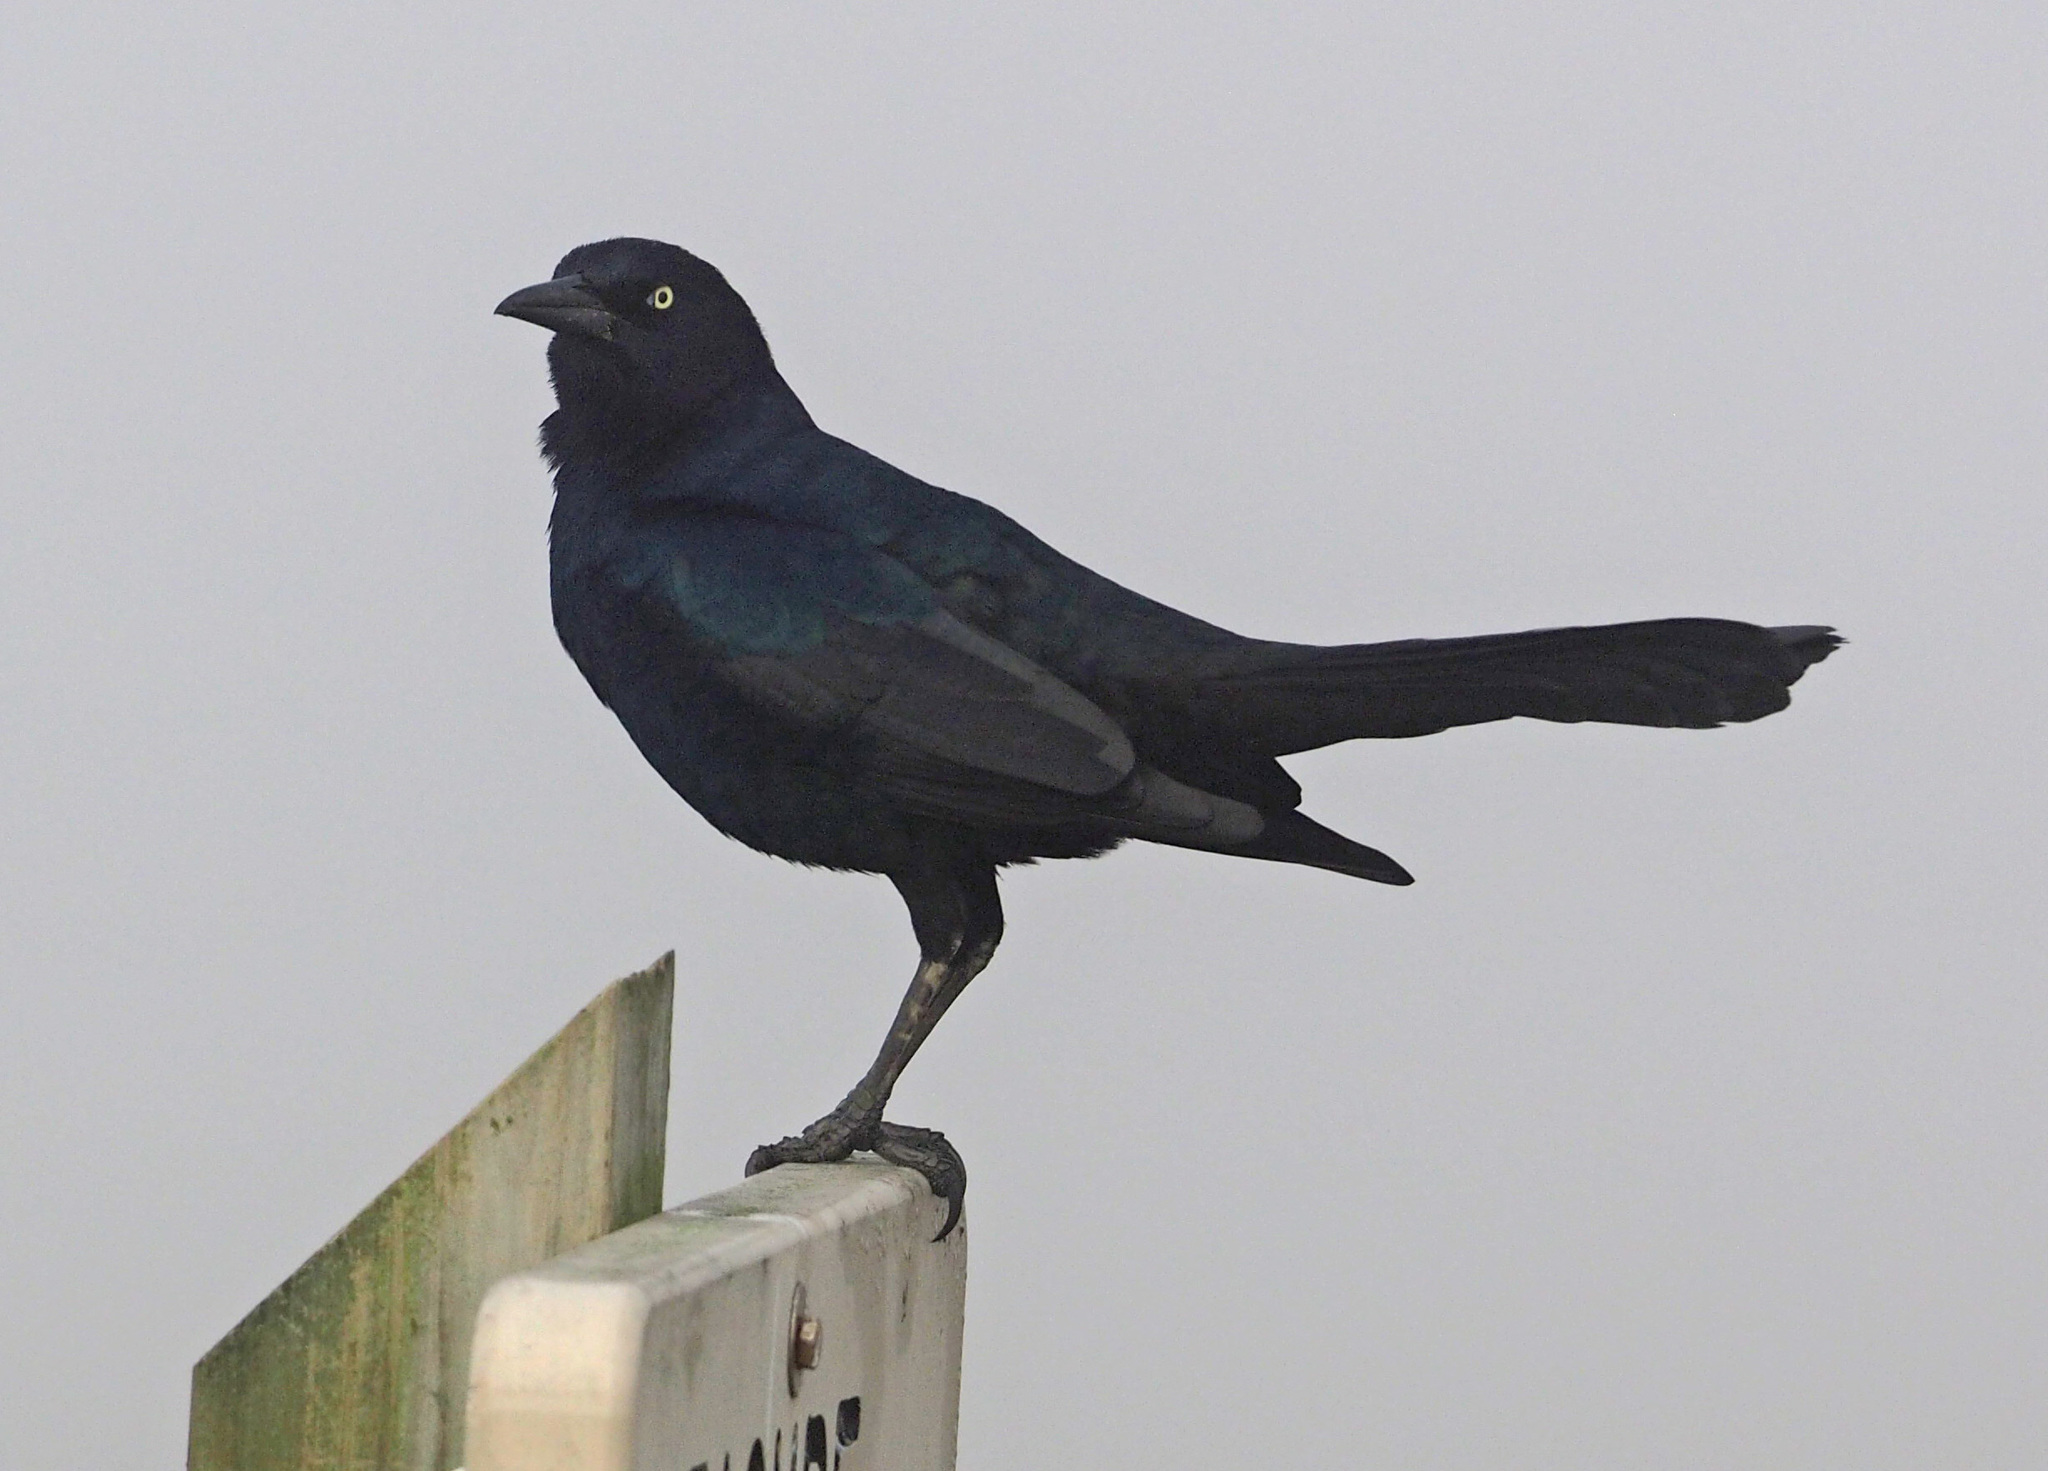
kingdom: Animalia
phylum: Chordata
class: Aves
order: Passeriformes
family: Icteridae
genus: Quiscalus
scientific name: Quiscalus major
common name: Boat-tailed grackle
